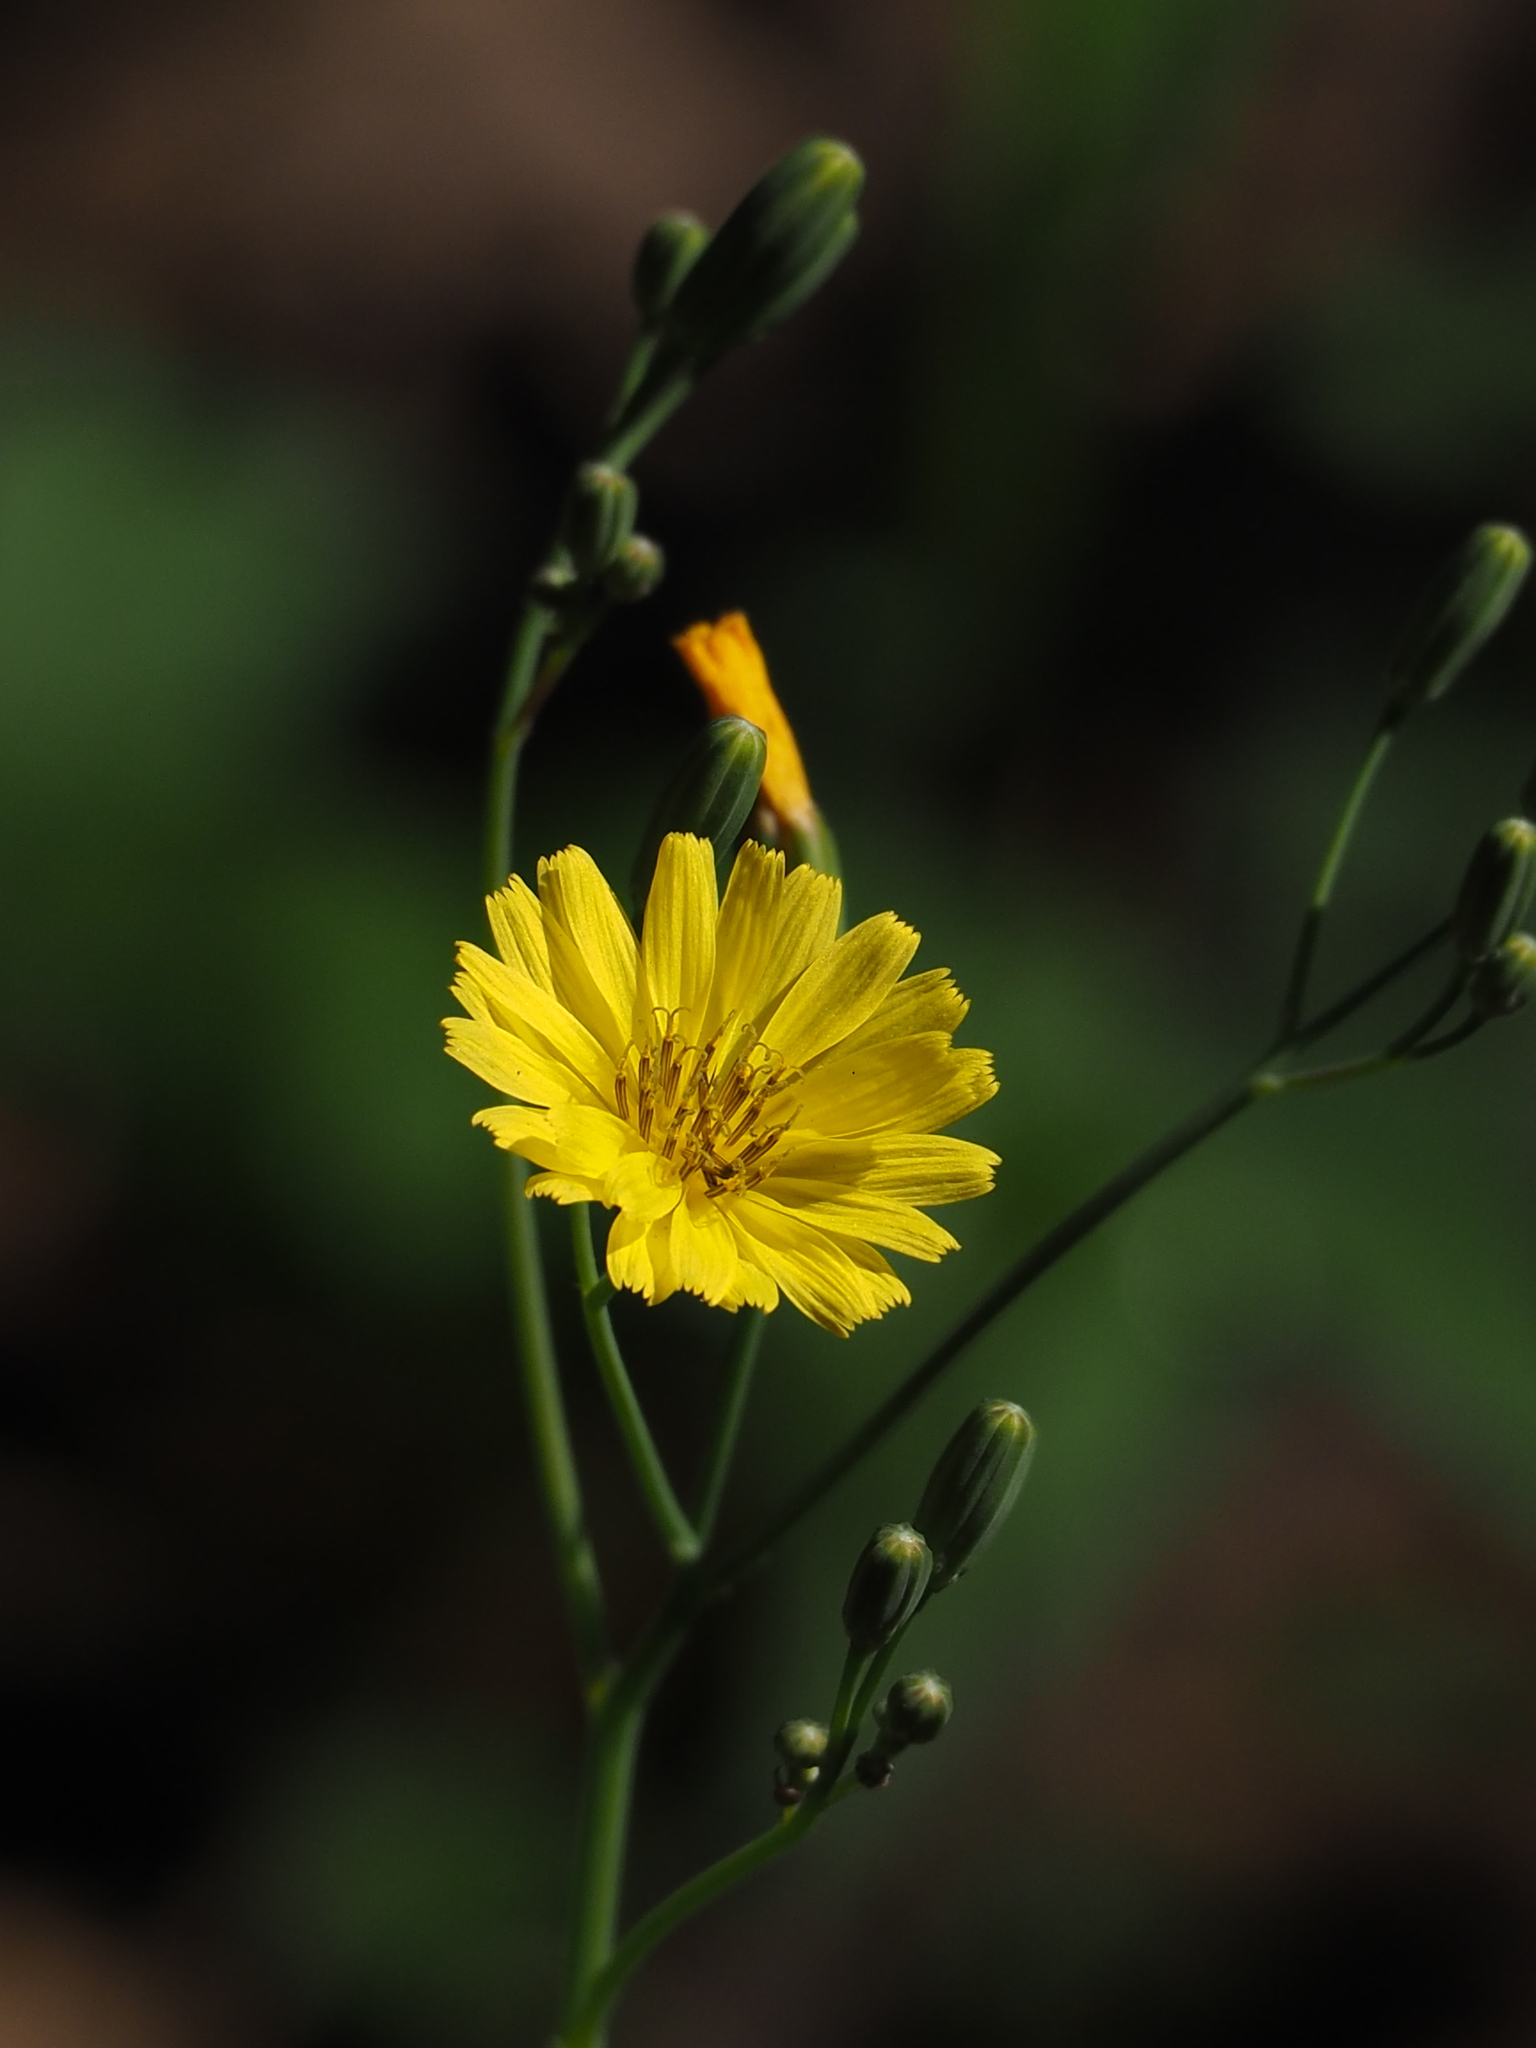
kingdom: Plantae
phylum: Tracheophyta
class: Magnoliopsida
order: Asterales
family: Asteraceae
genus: Ixeris
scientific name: Ixeris chinensis
